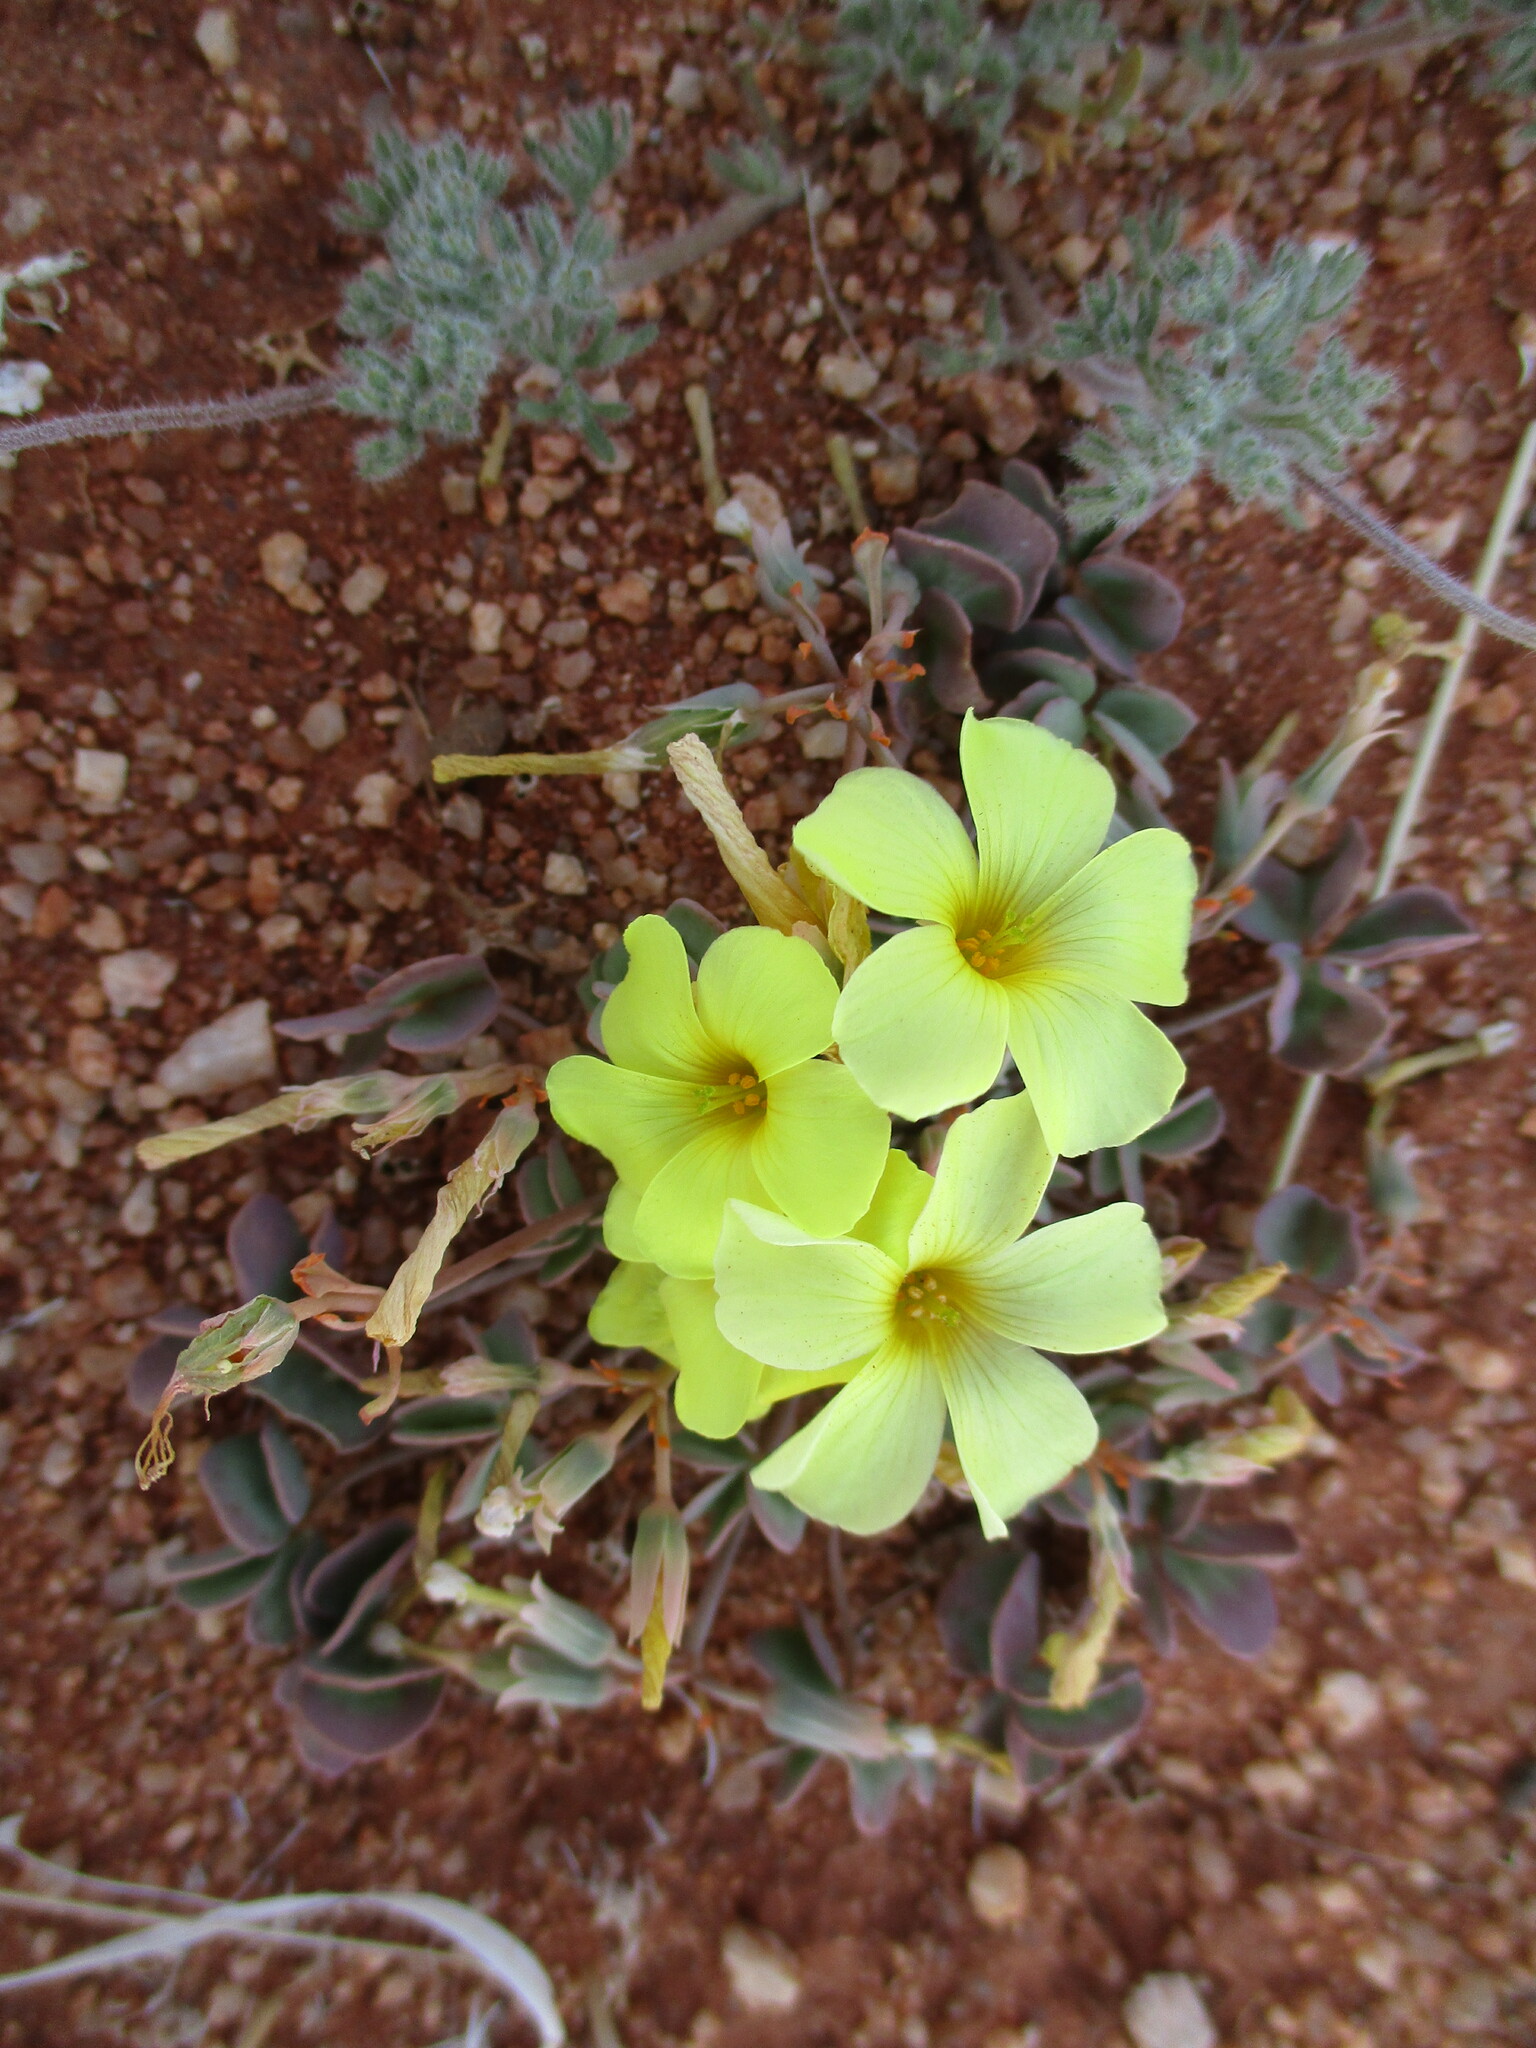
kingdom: Plantae
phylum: Tracheophyta
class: Magnoliopsida
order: Oxalidales
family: Oxalidaceae
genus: Oxalis
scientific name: Oxalis luederitzii
